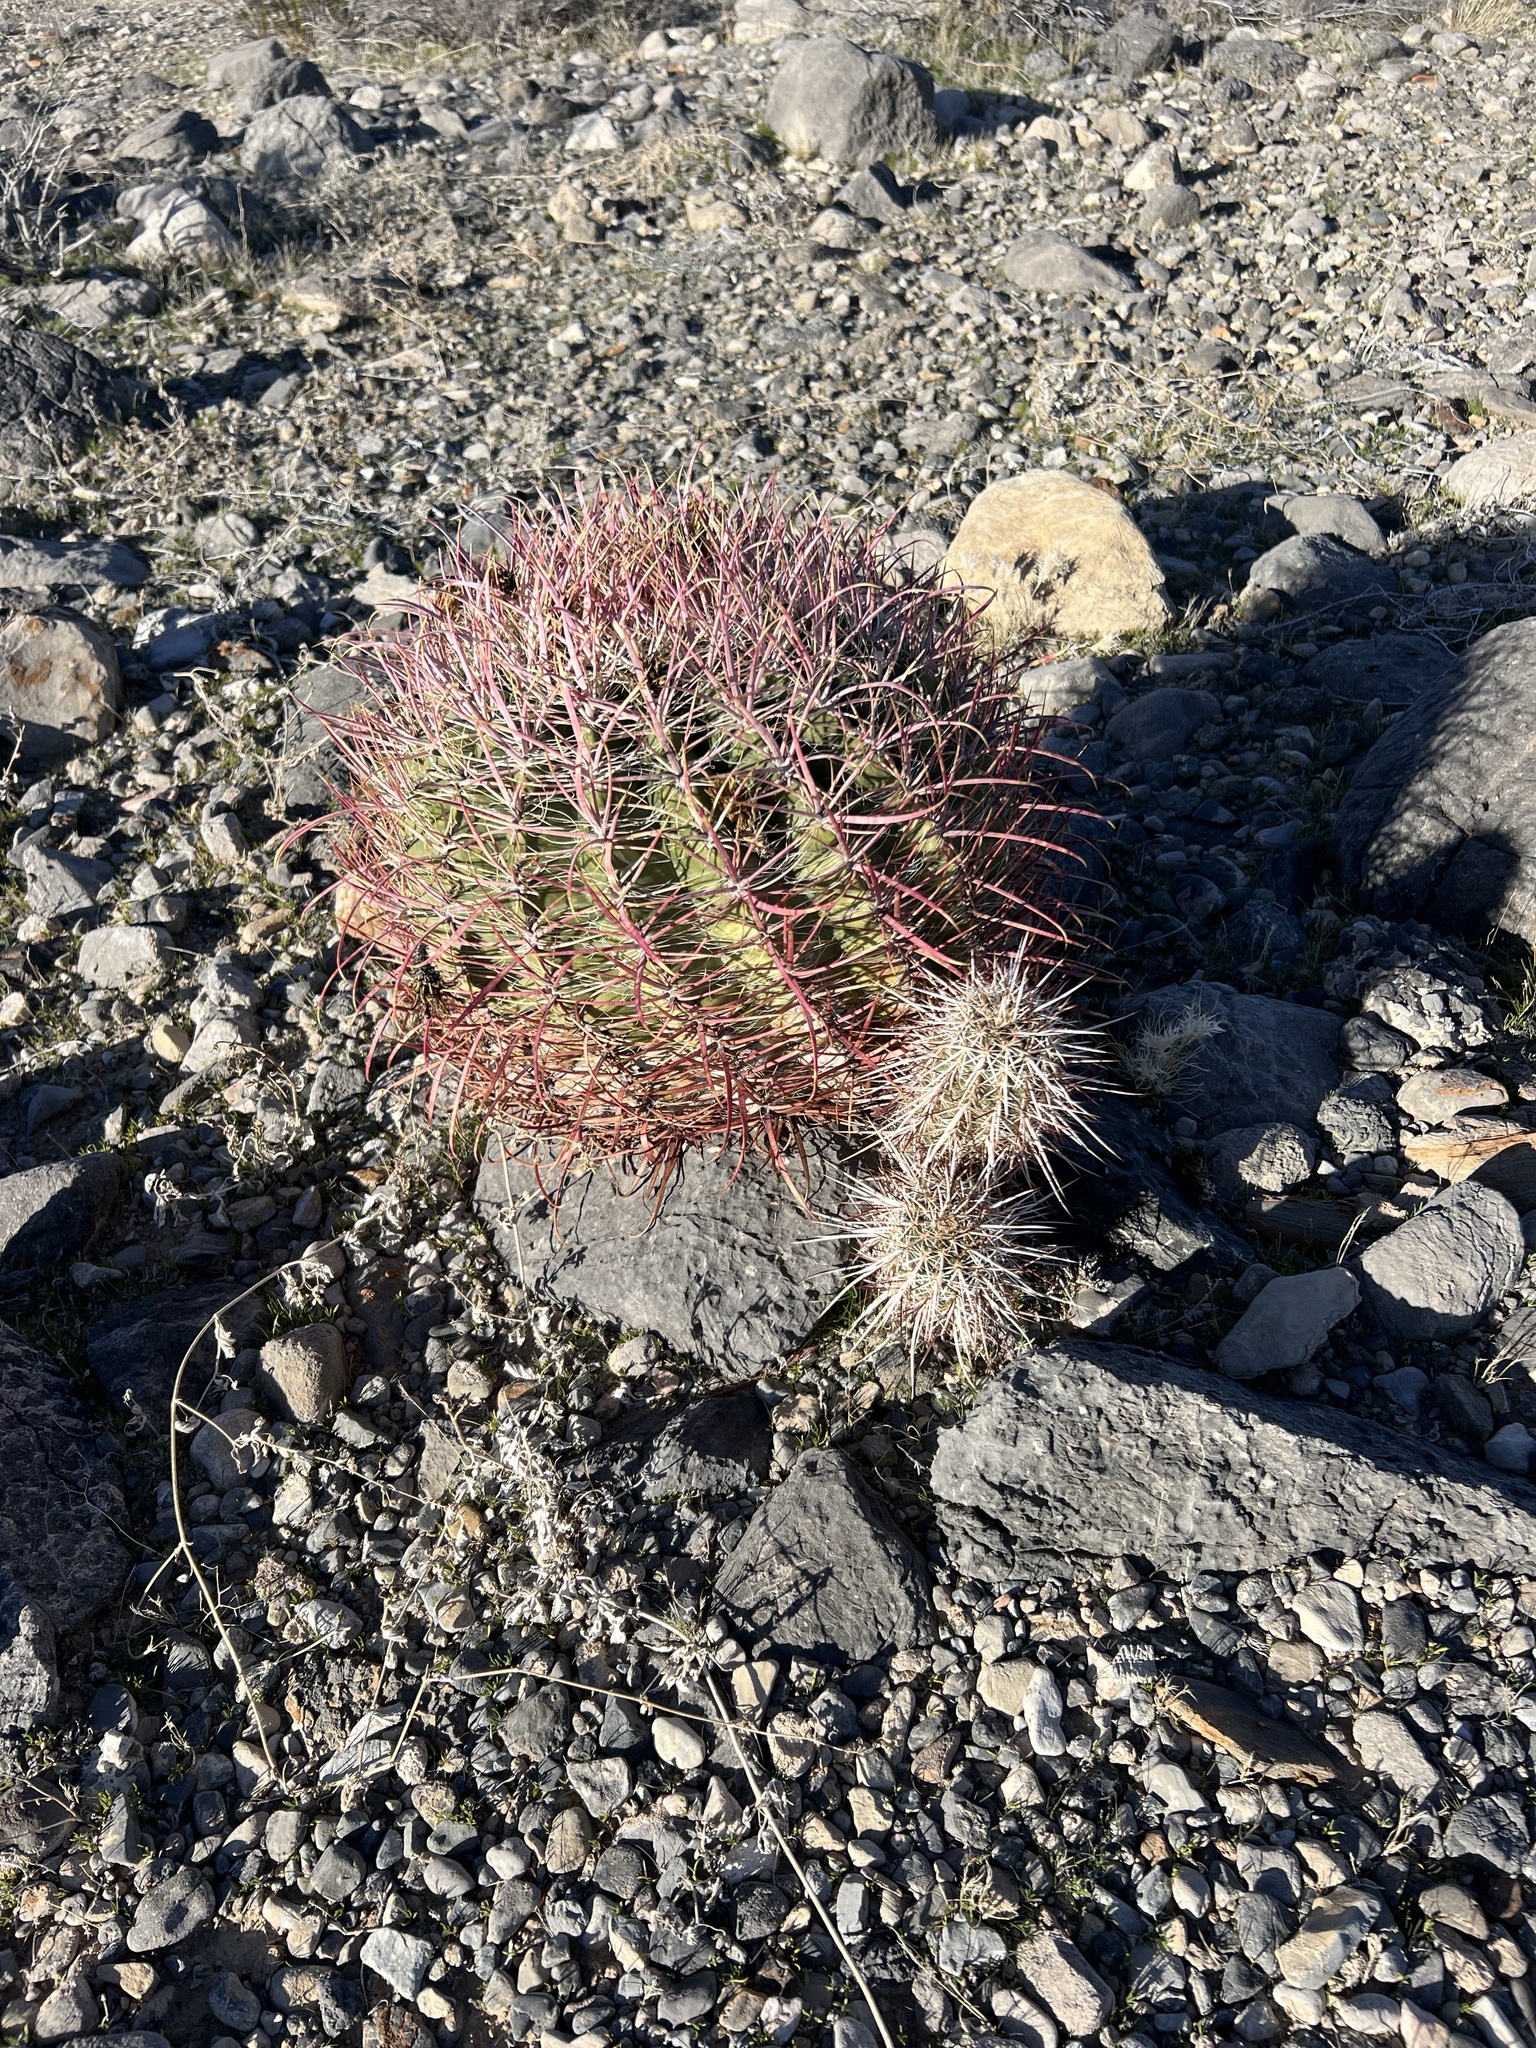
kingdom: Plantae
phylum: Tracheophyta
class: Magnoliopsida
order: Caryophyllales
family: Cactaceae
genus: Echinocereus
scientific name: Echinocereus engelmannii
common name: Engelmann's hedgehog cactus
